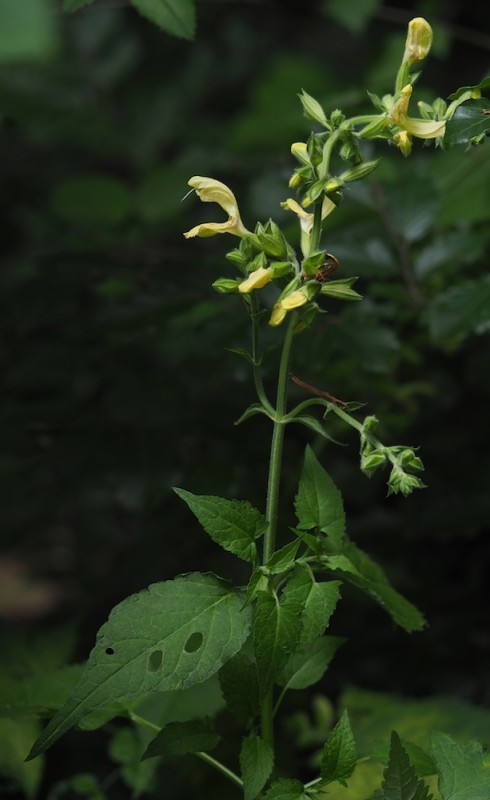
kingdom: Plantae
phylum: Tracheophyta
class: Magnoliopsida
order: Lamiales
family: Lamiaceae
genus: Salvia
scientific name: Salvia glutinosa
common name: Sticky clary
